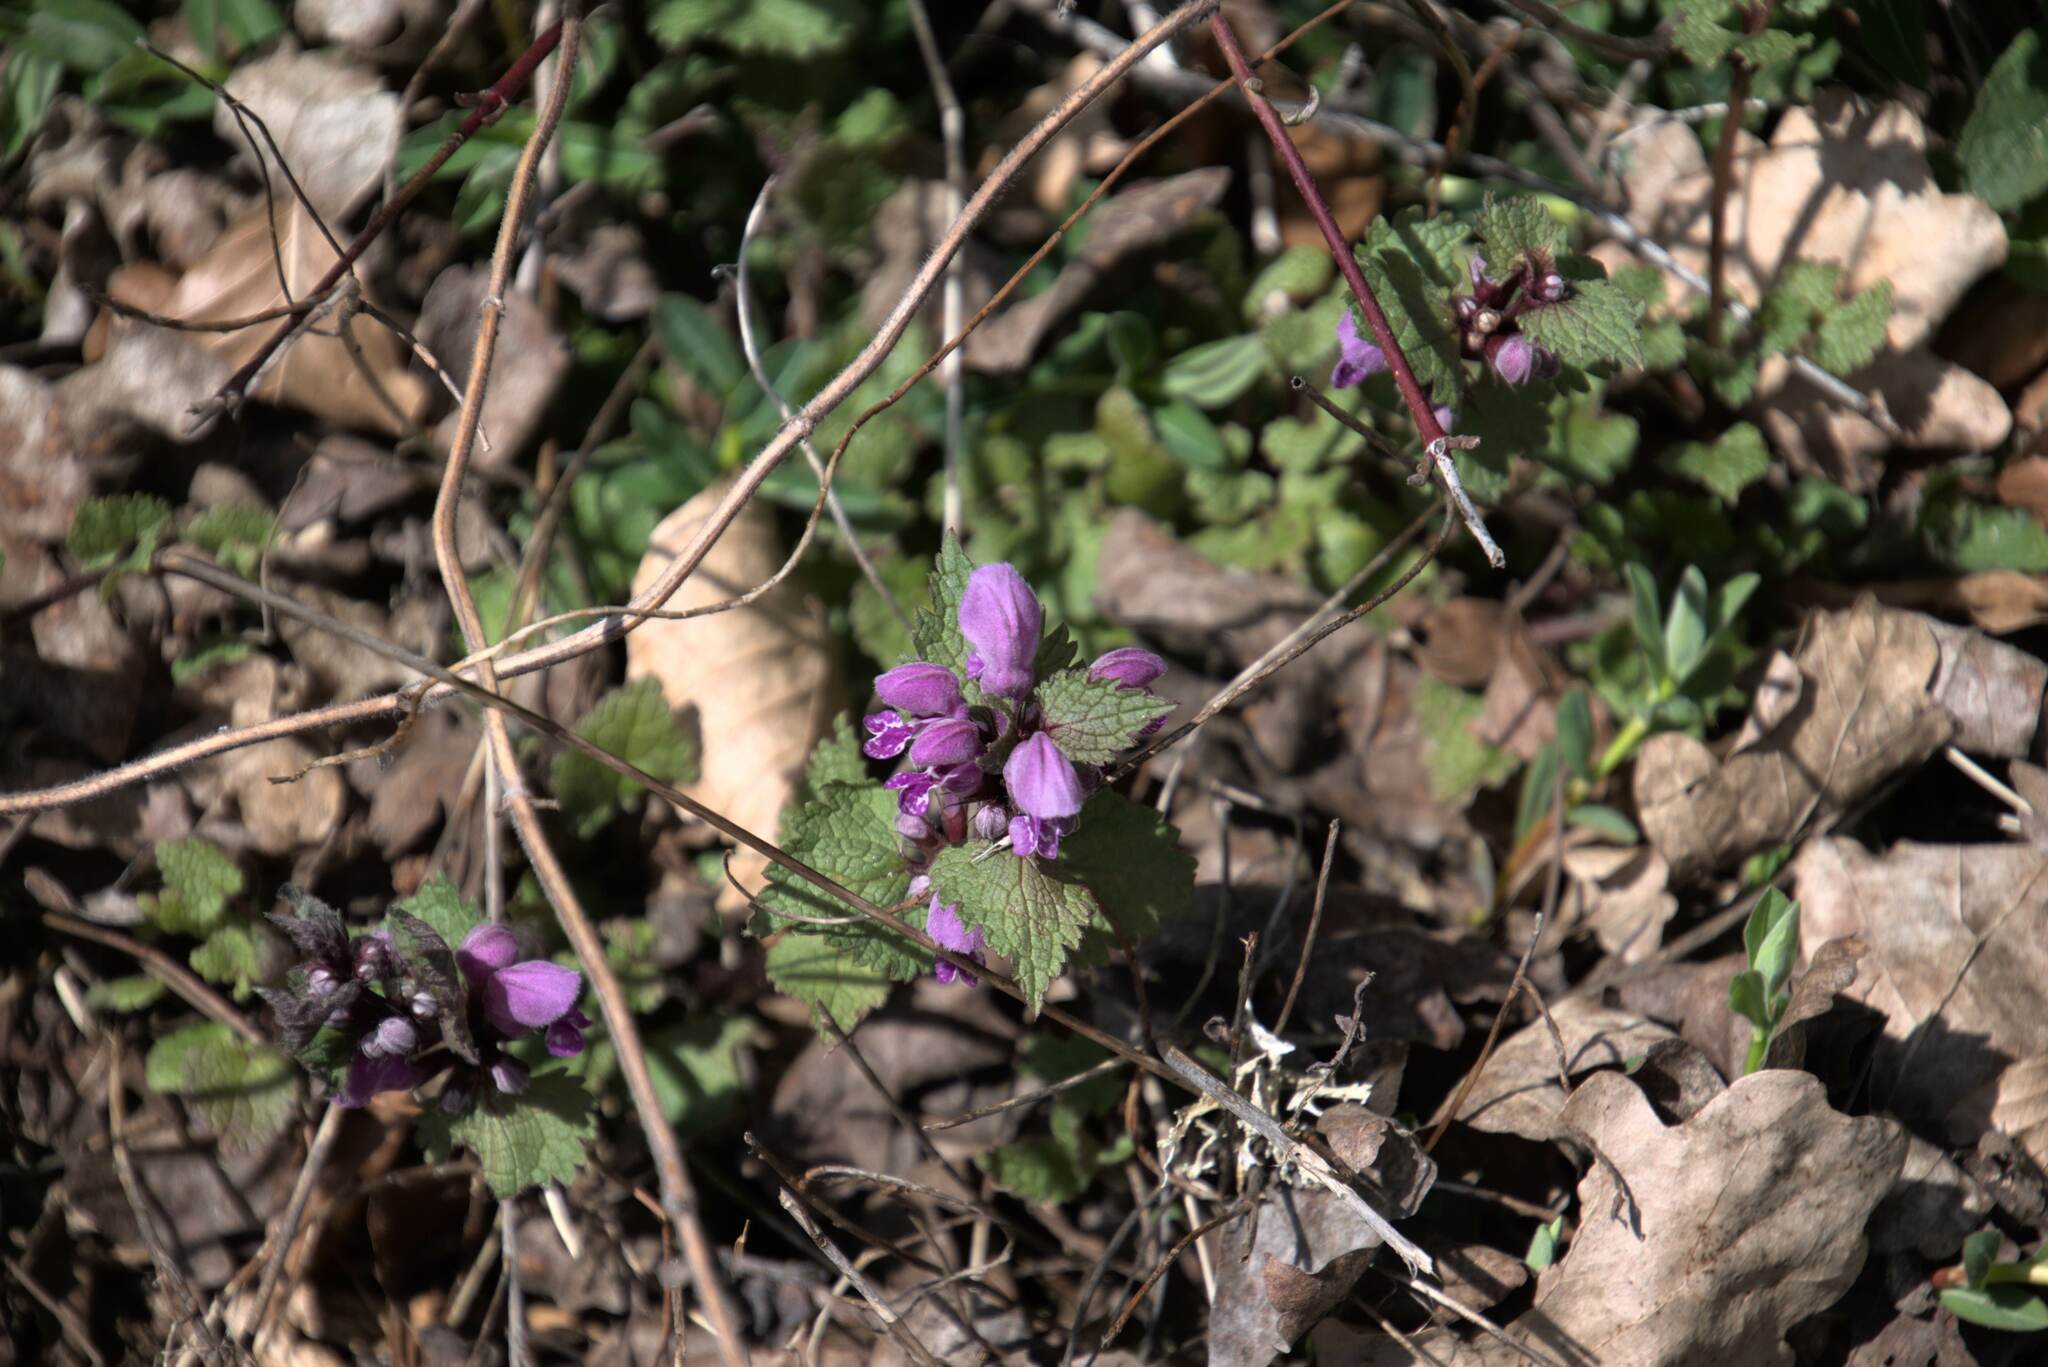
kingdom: Plantae
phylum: Tracheophyta
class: Magnoliopsida
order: Lamiales
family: Lamiaceae
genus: Lamium
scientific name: Lamium maculatum
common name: Spotted dead-nettle
